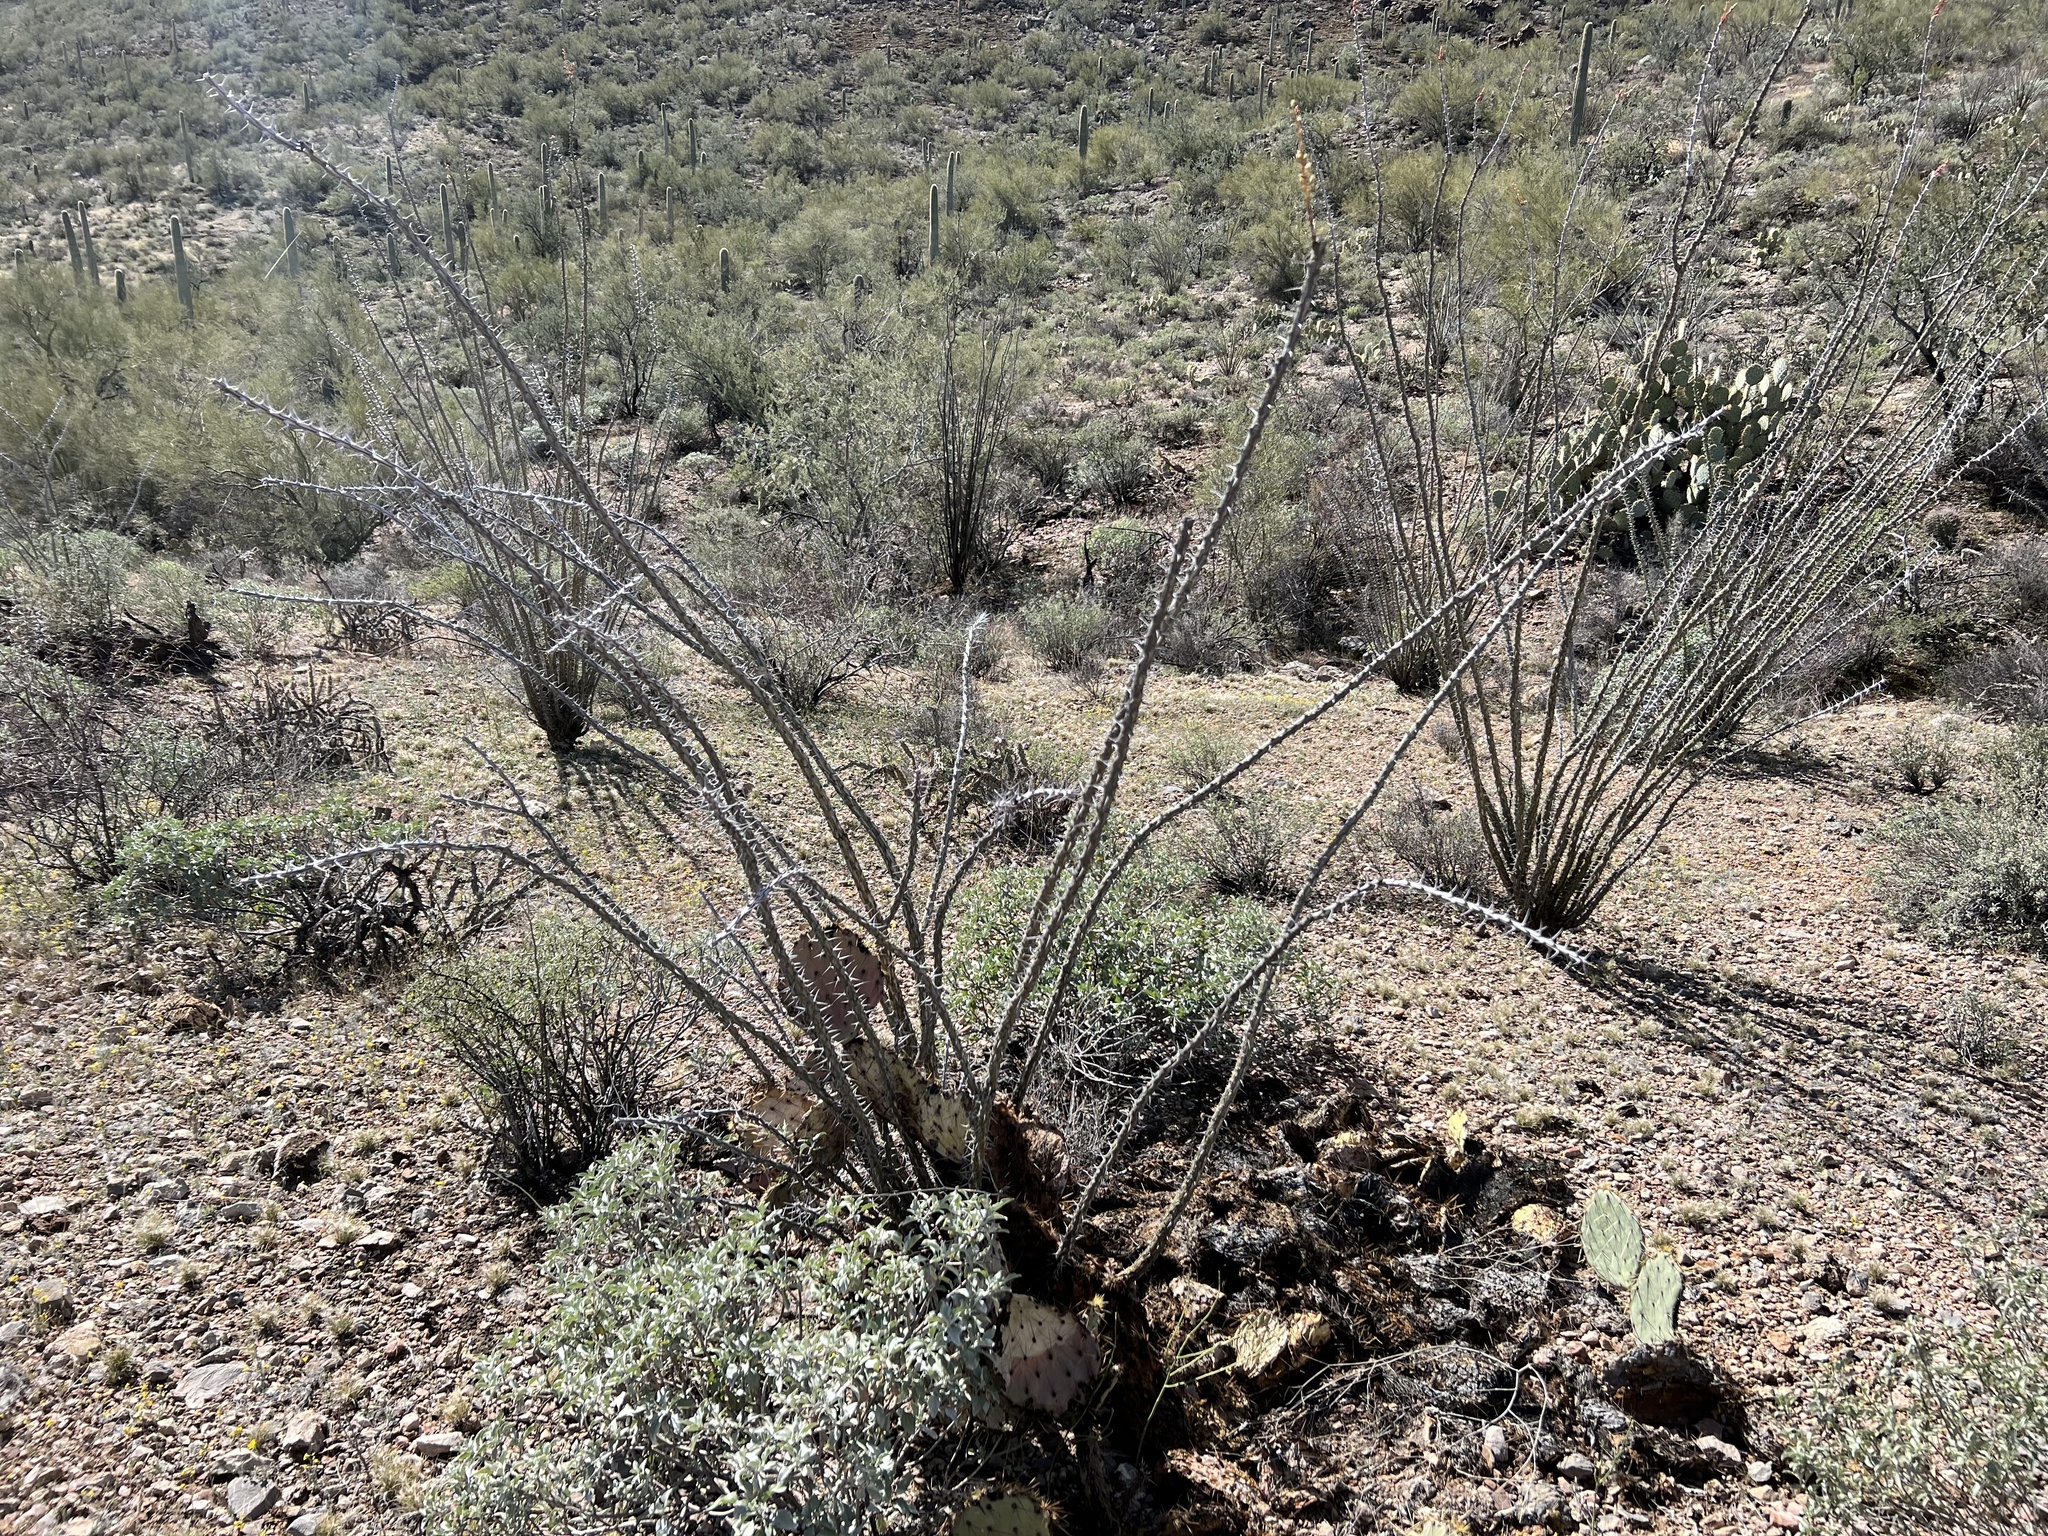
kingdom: Plantae
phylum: Tracheophyta
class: Magnoliopsida
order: Ericales
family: Fouquieriaceae
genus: Fouquieria
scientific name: Fouquieria splendens
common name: Vine-cactus
